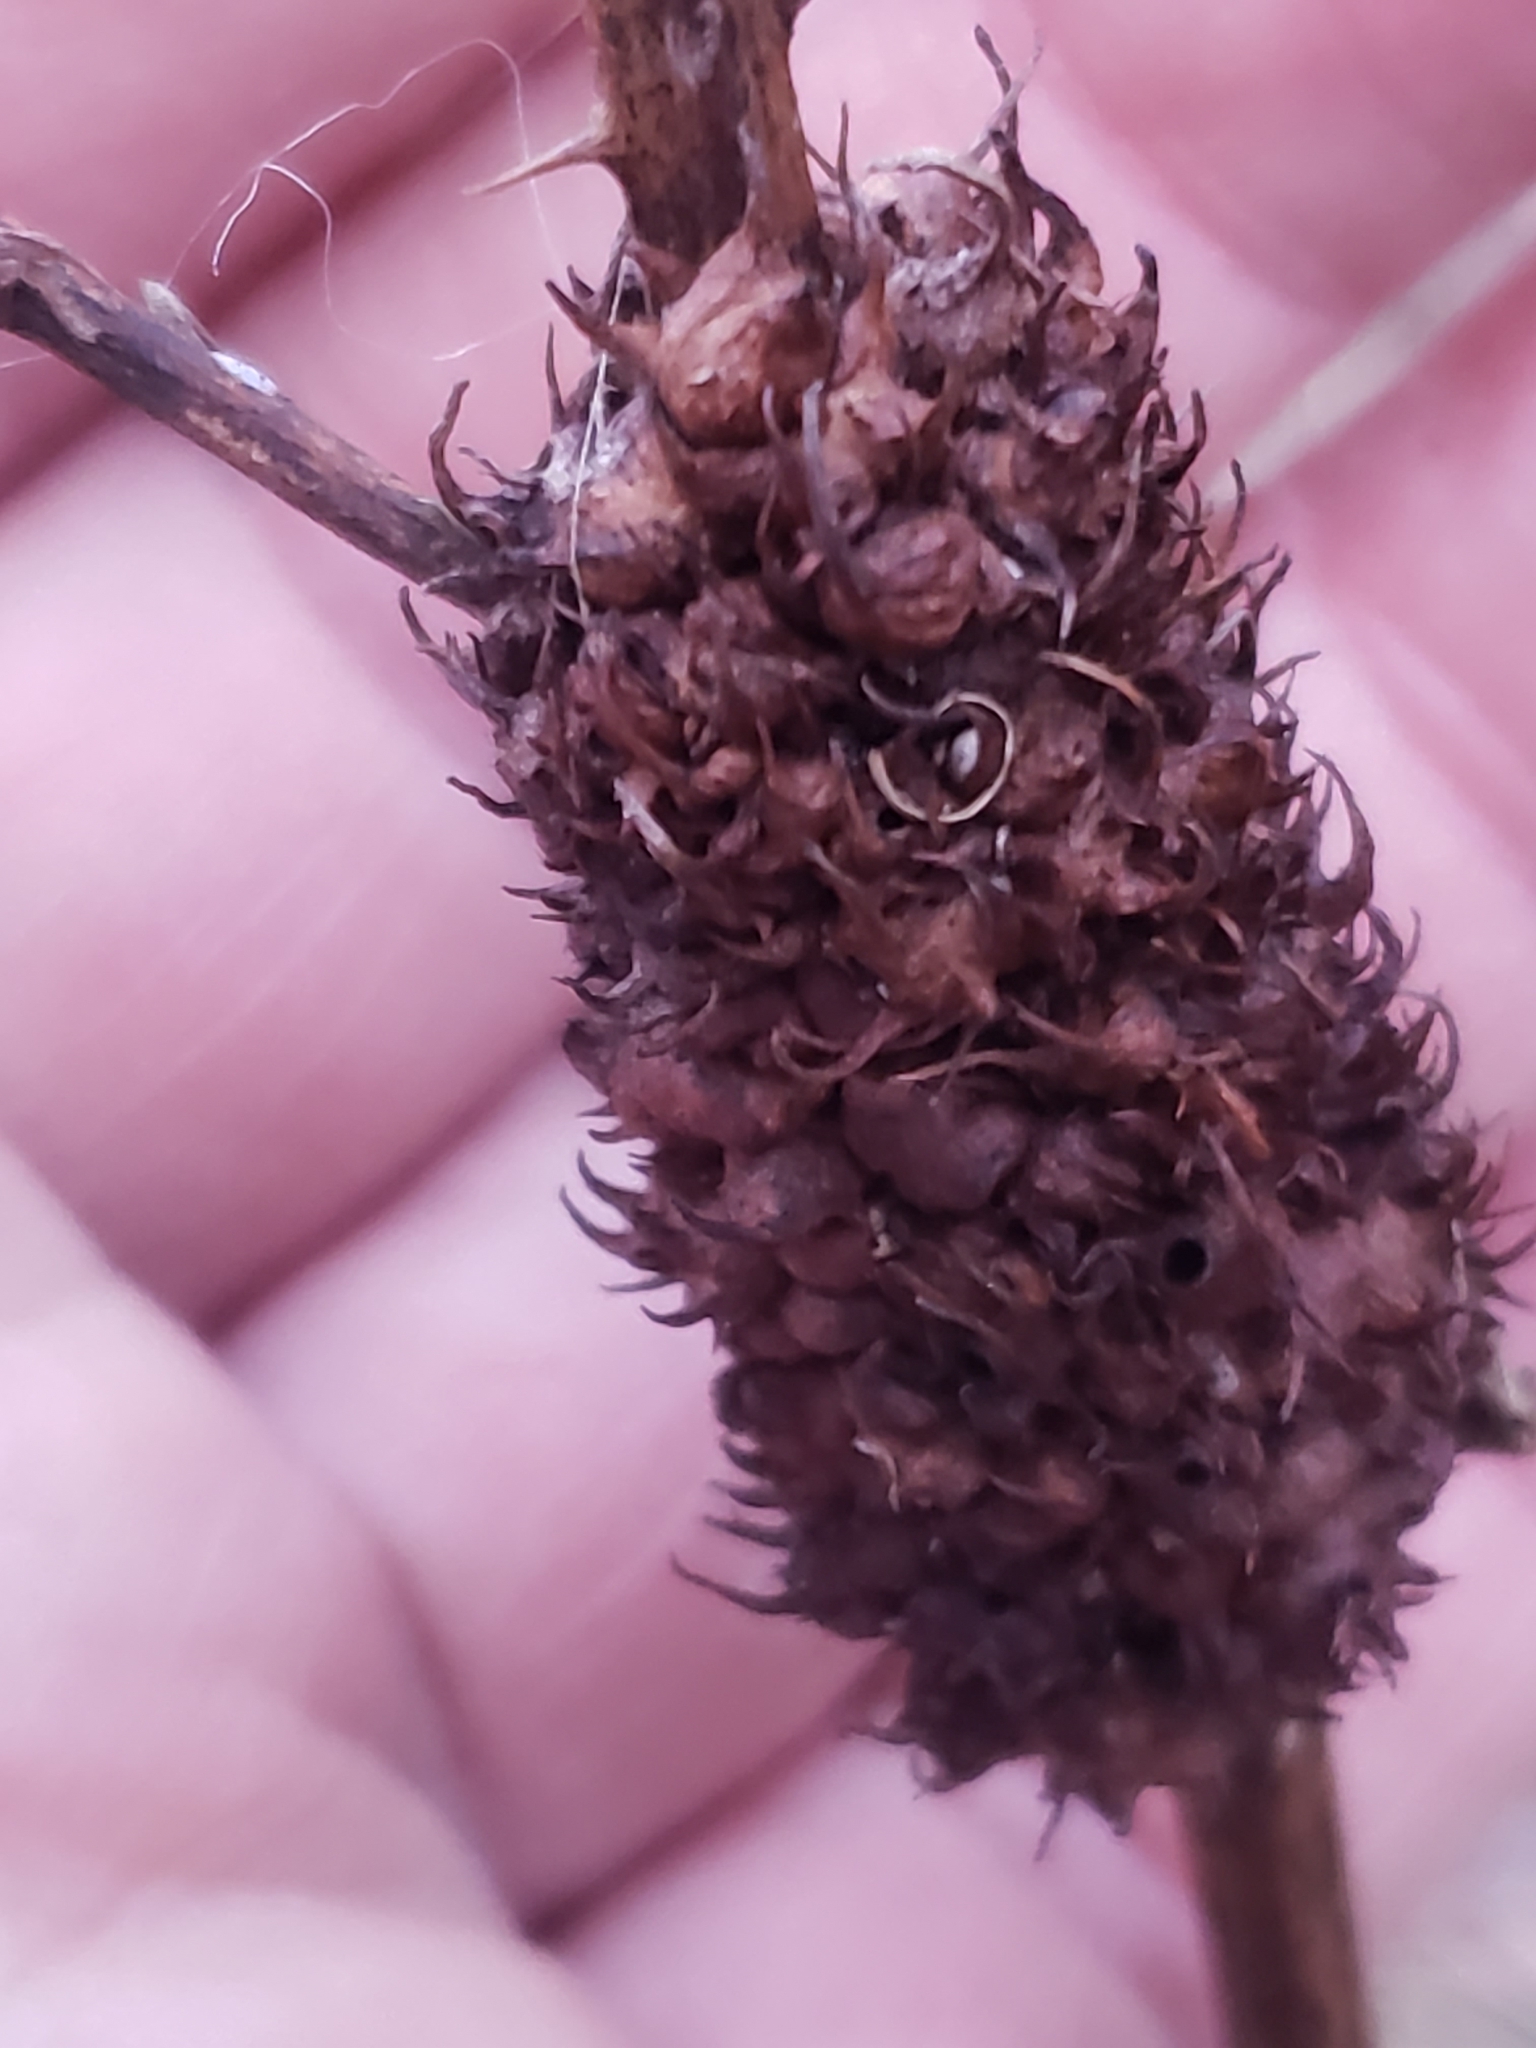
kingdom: Animalia
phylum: Arthropoda
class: Insecta
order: Hymenoptera
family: Cynipidae
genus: Diastrophus
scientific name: Diastrophus
